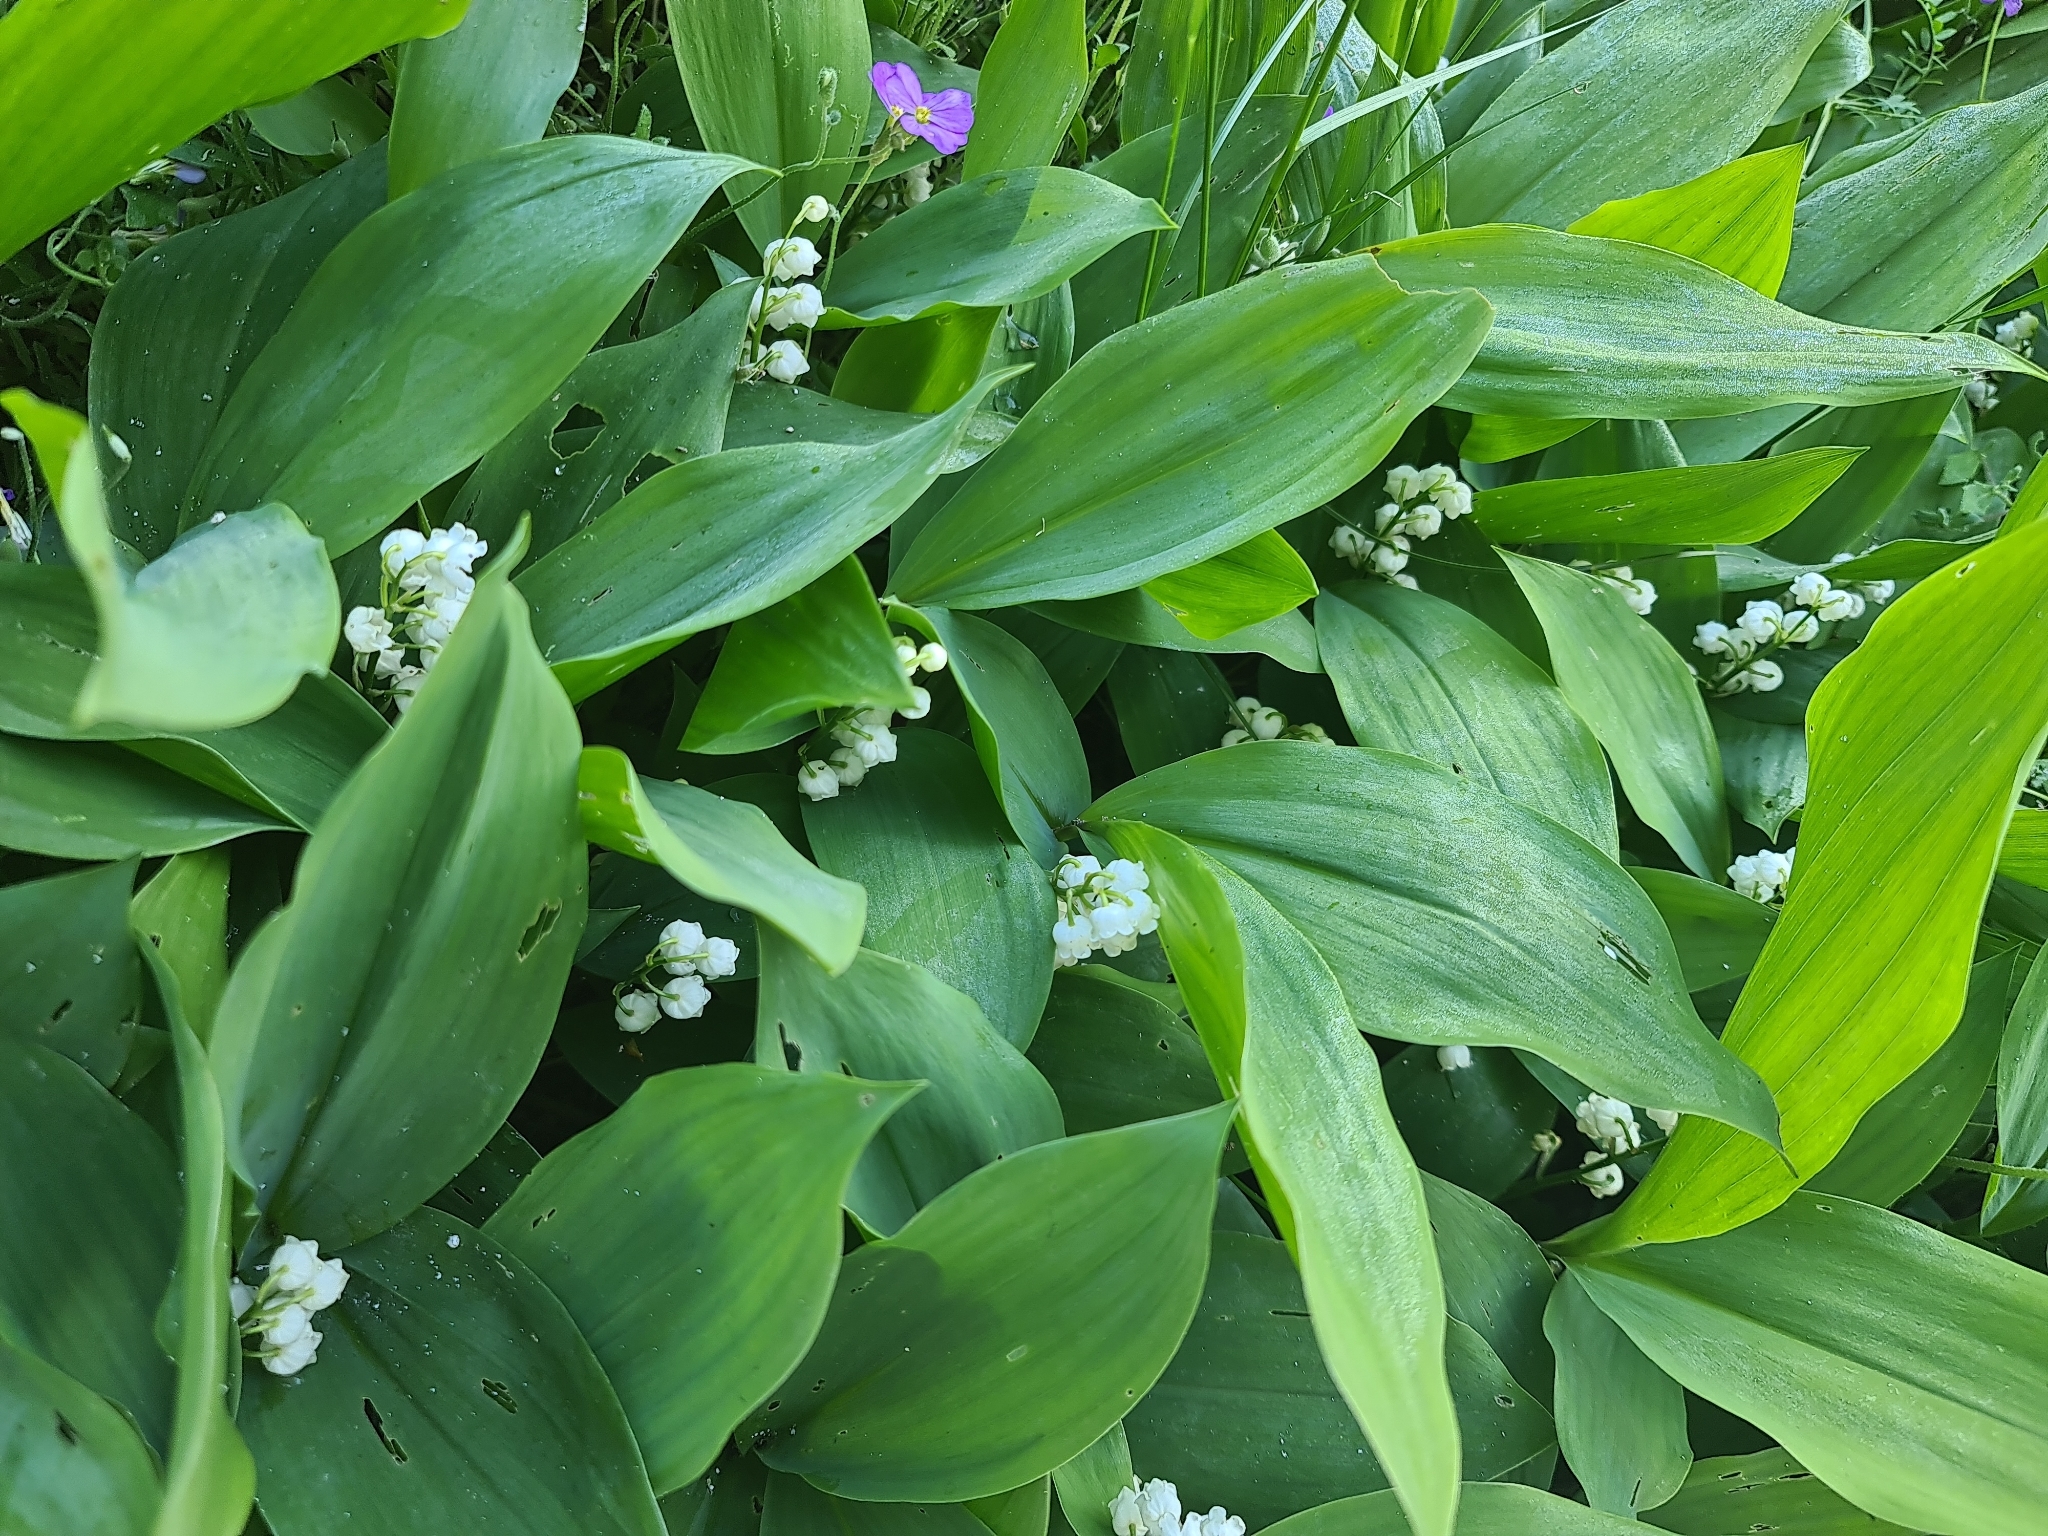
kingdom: Plantae
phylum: Tracheophyta
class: Liliopsida
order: Asparagales
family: Asparagaceae
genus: Convallaria
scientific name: Convallaria majalis
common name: Lily-of-the-valley
